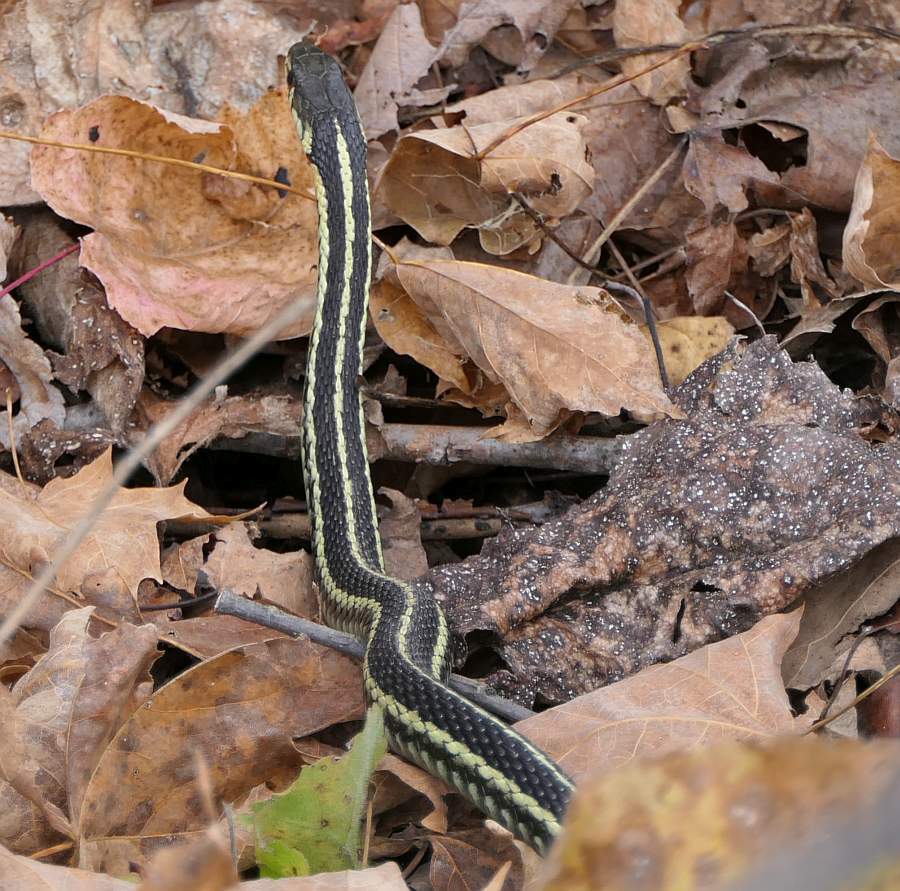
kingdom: Animalia
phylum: Chordata
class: Squamata
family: Colubridae
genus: Thamnophis
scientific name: Thamnophis sirtalis
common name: Common garter snake
